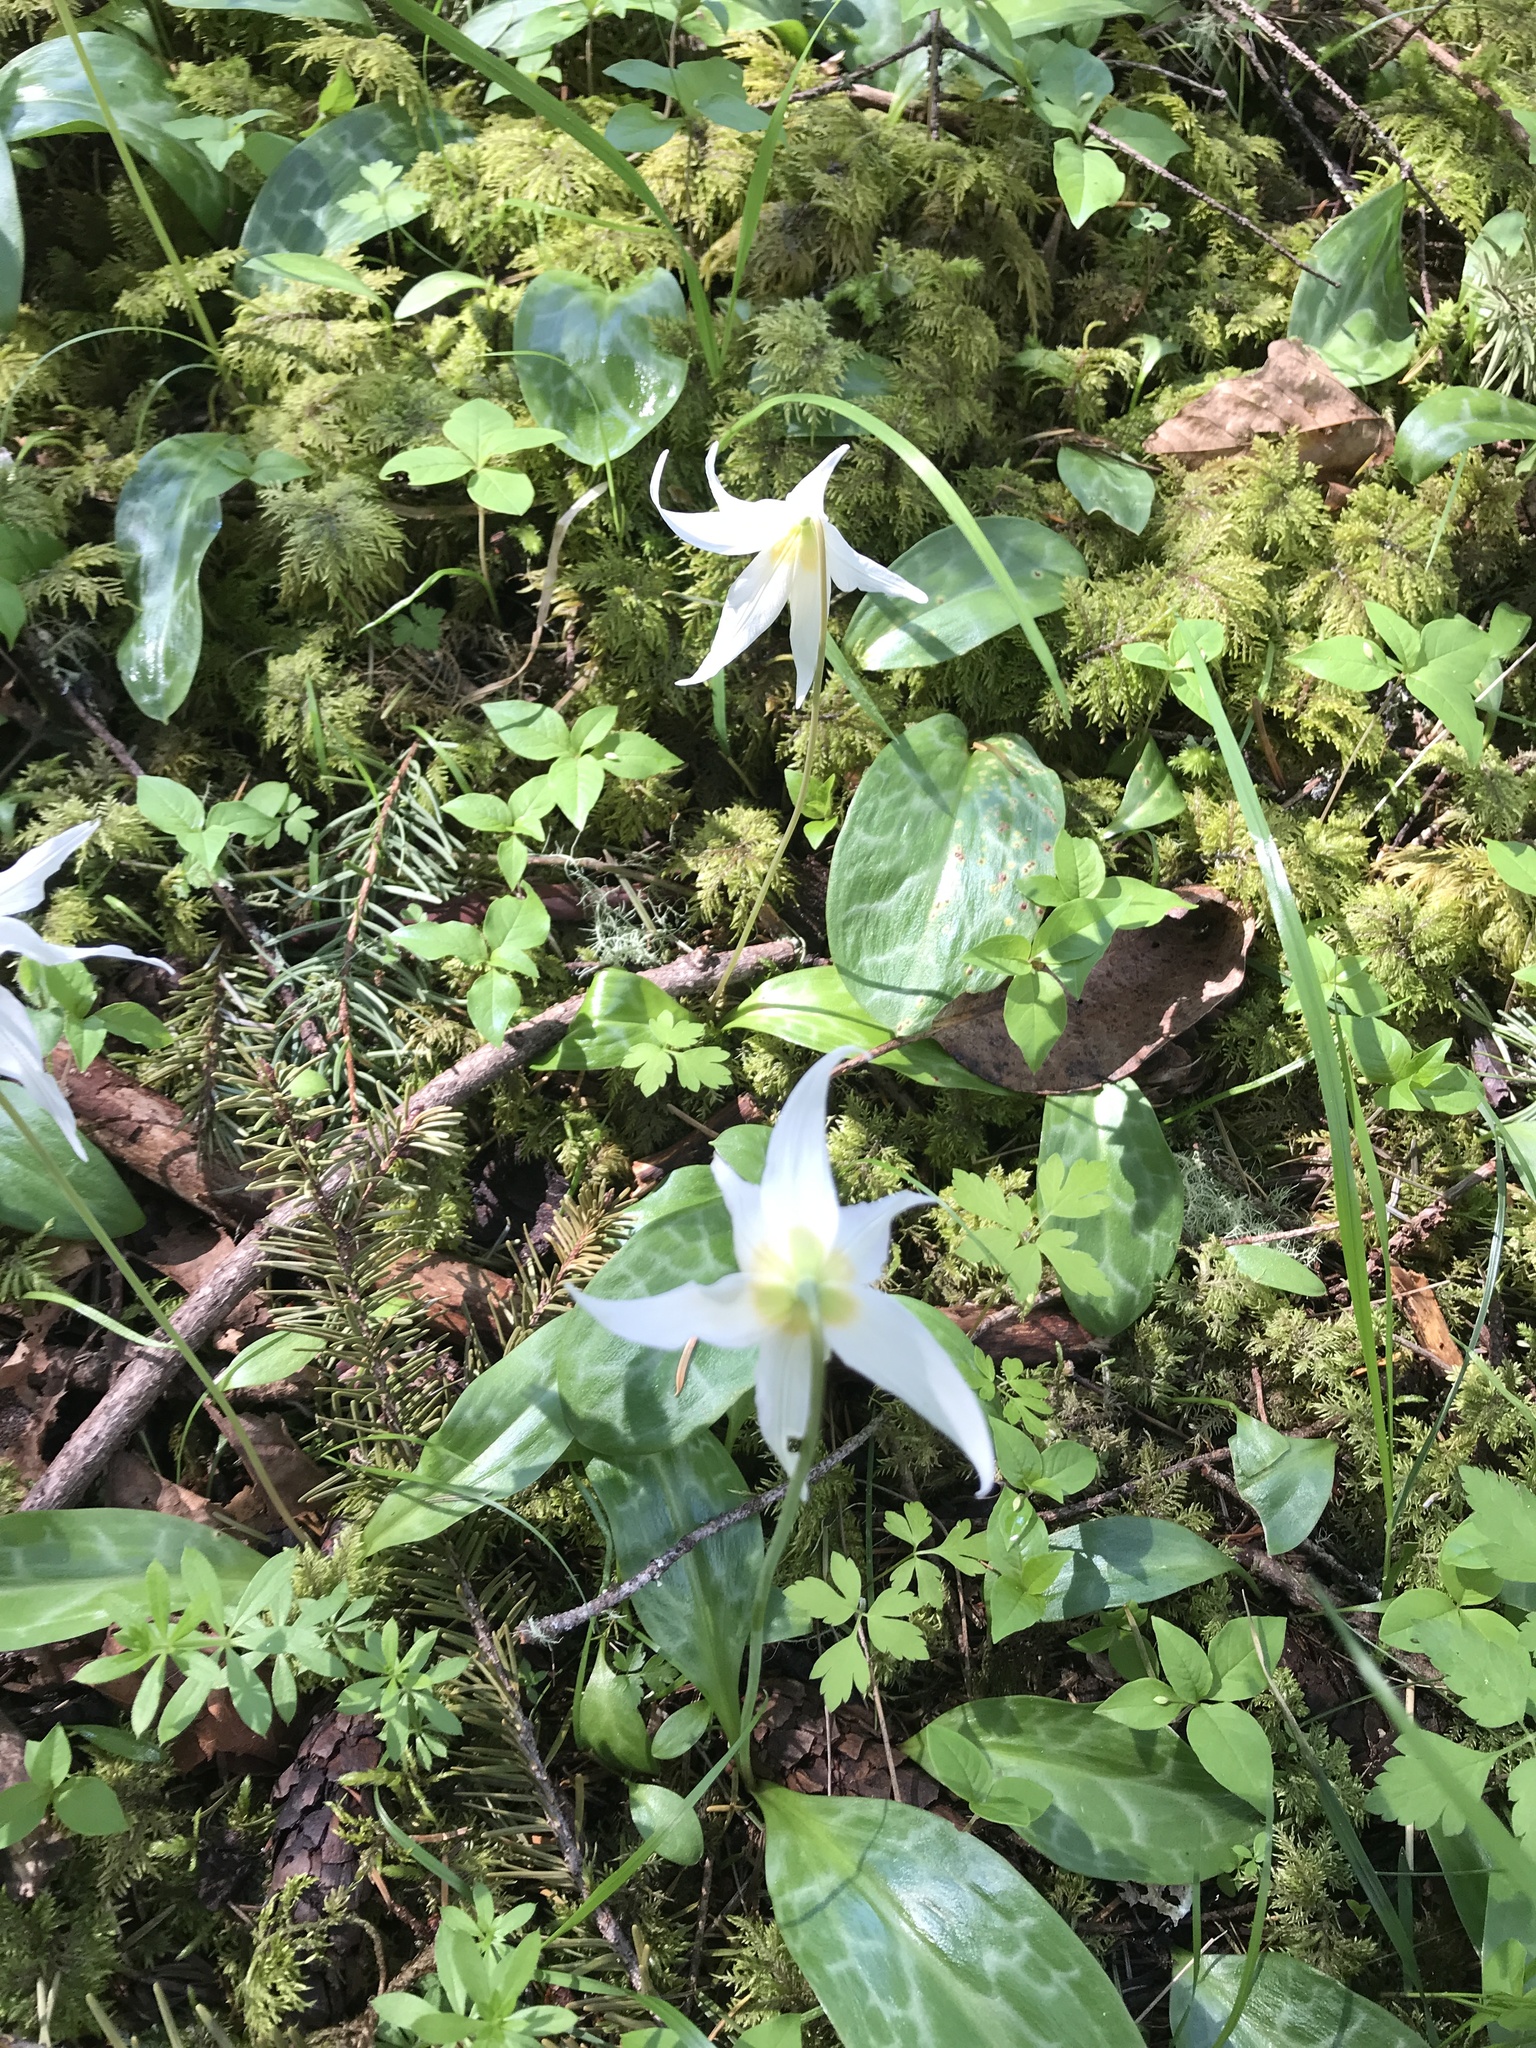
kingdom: Plantae
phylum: Tracheophyta
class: Liliopsida
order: Liliales
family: Liliaceae
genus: Erythronium
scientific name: Erythronium oregonum
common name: Giant adder's-tongue
